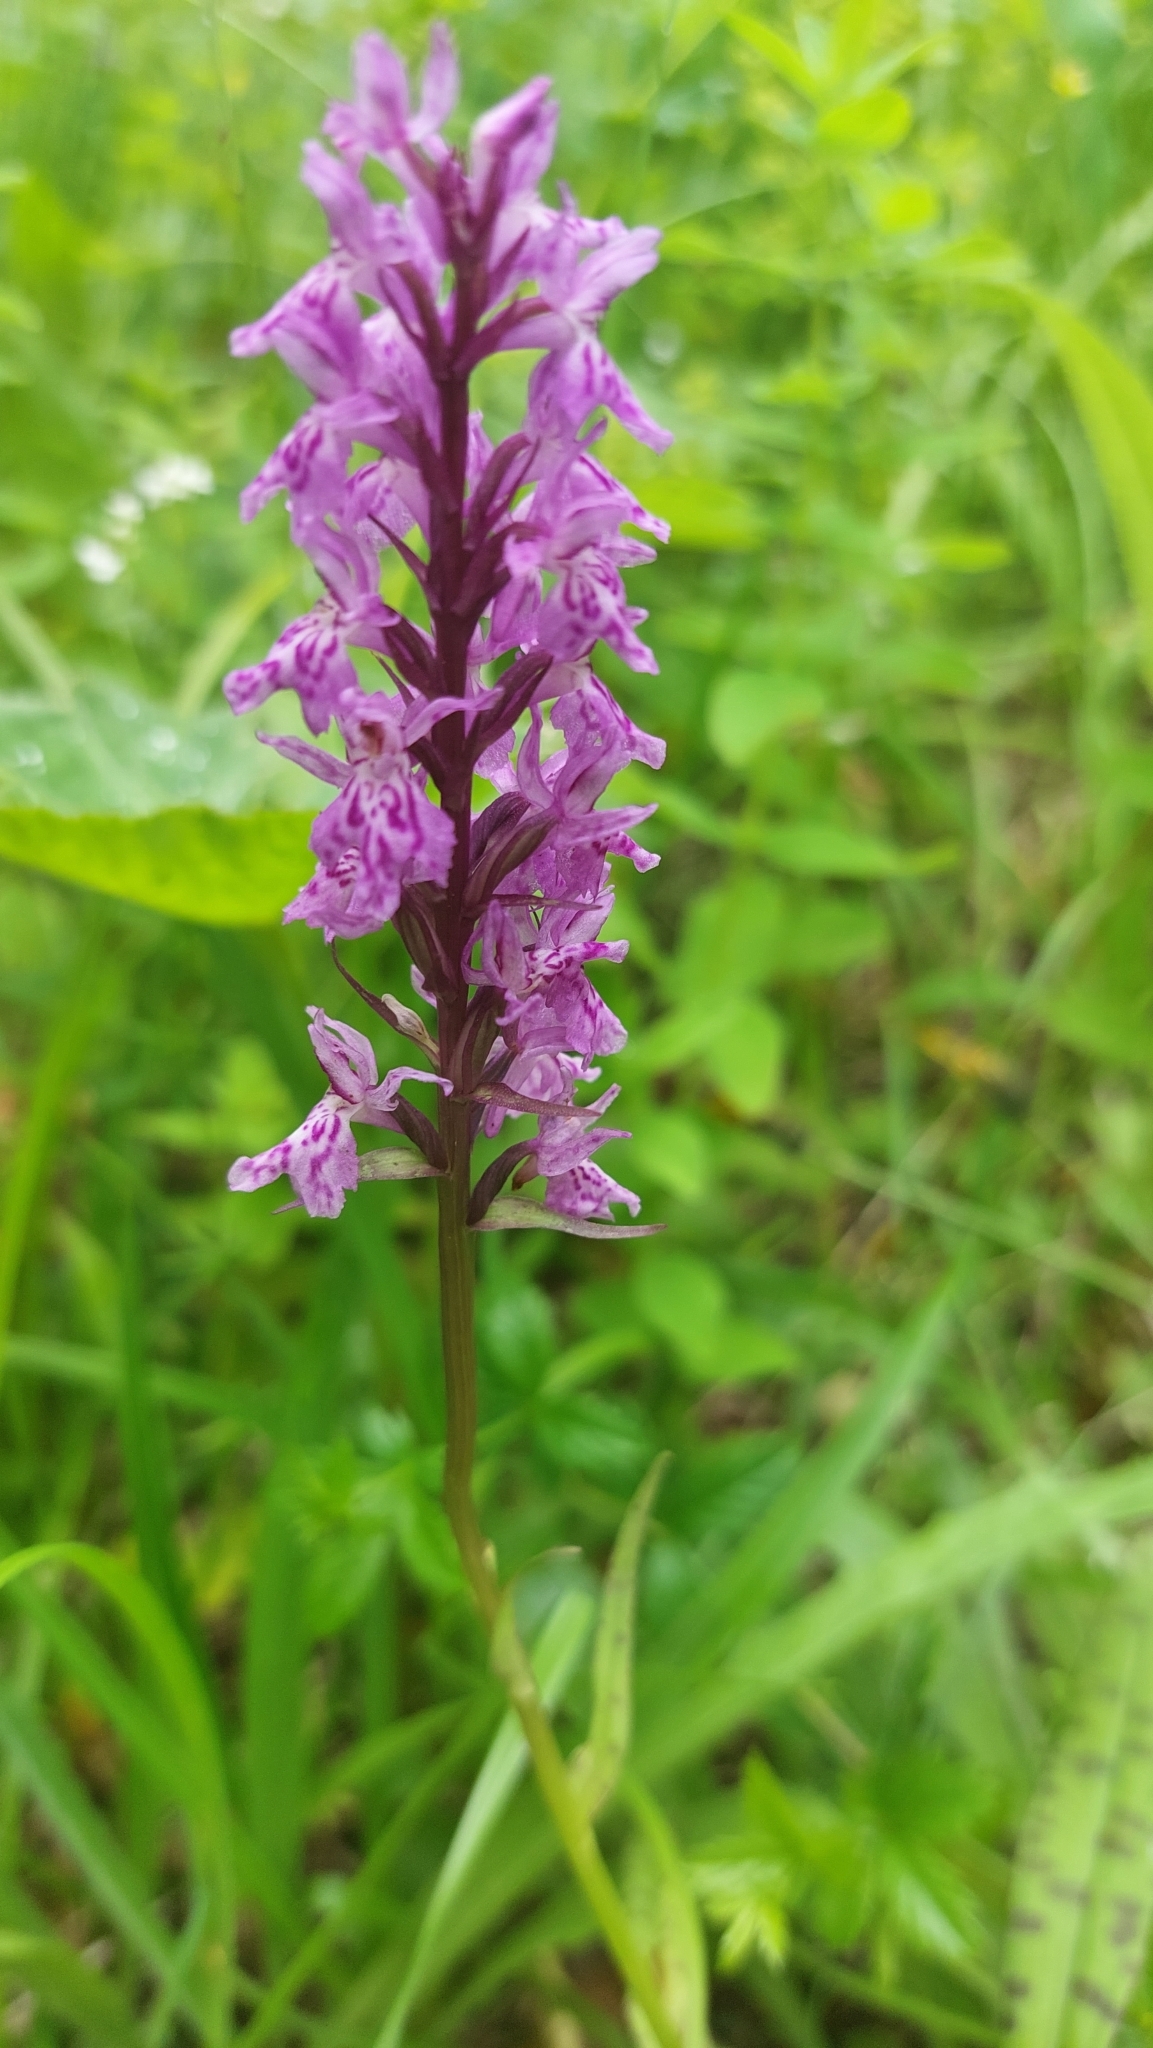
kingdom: Plantae
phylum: Tracheophyta
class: Liliopsida
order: Asparagales
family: Orchidaceae
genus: Dactylorhiza
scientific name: Dactylorhiza maculata
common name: Heath spotted-orchid
